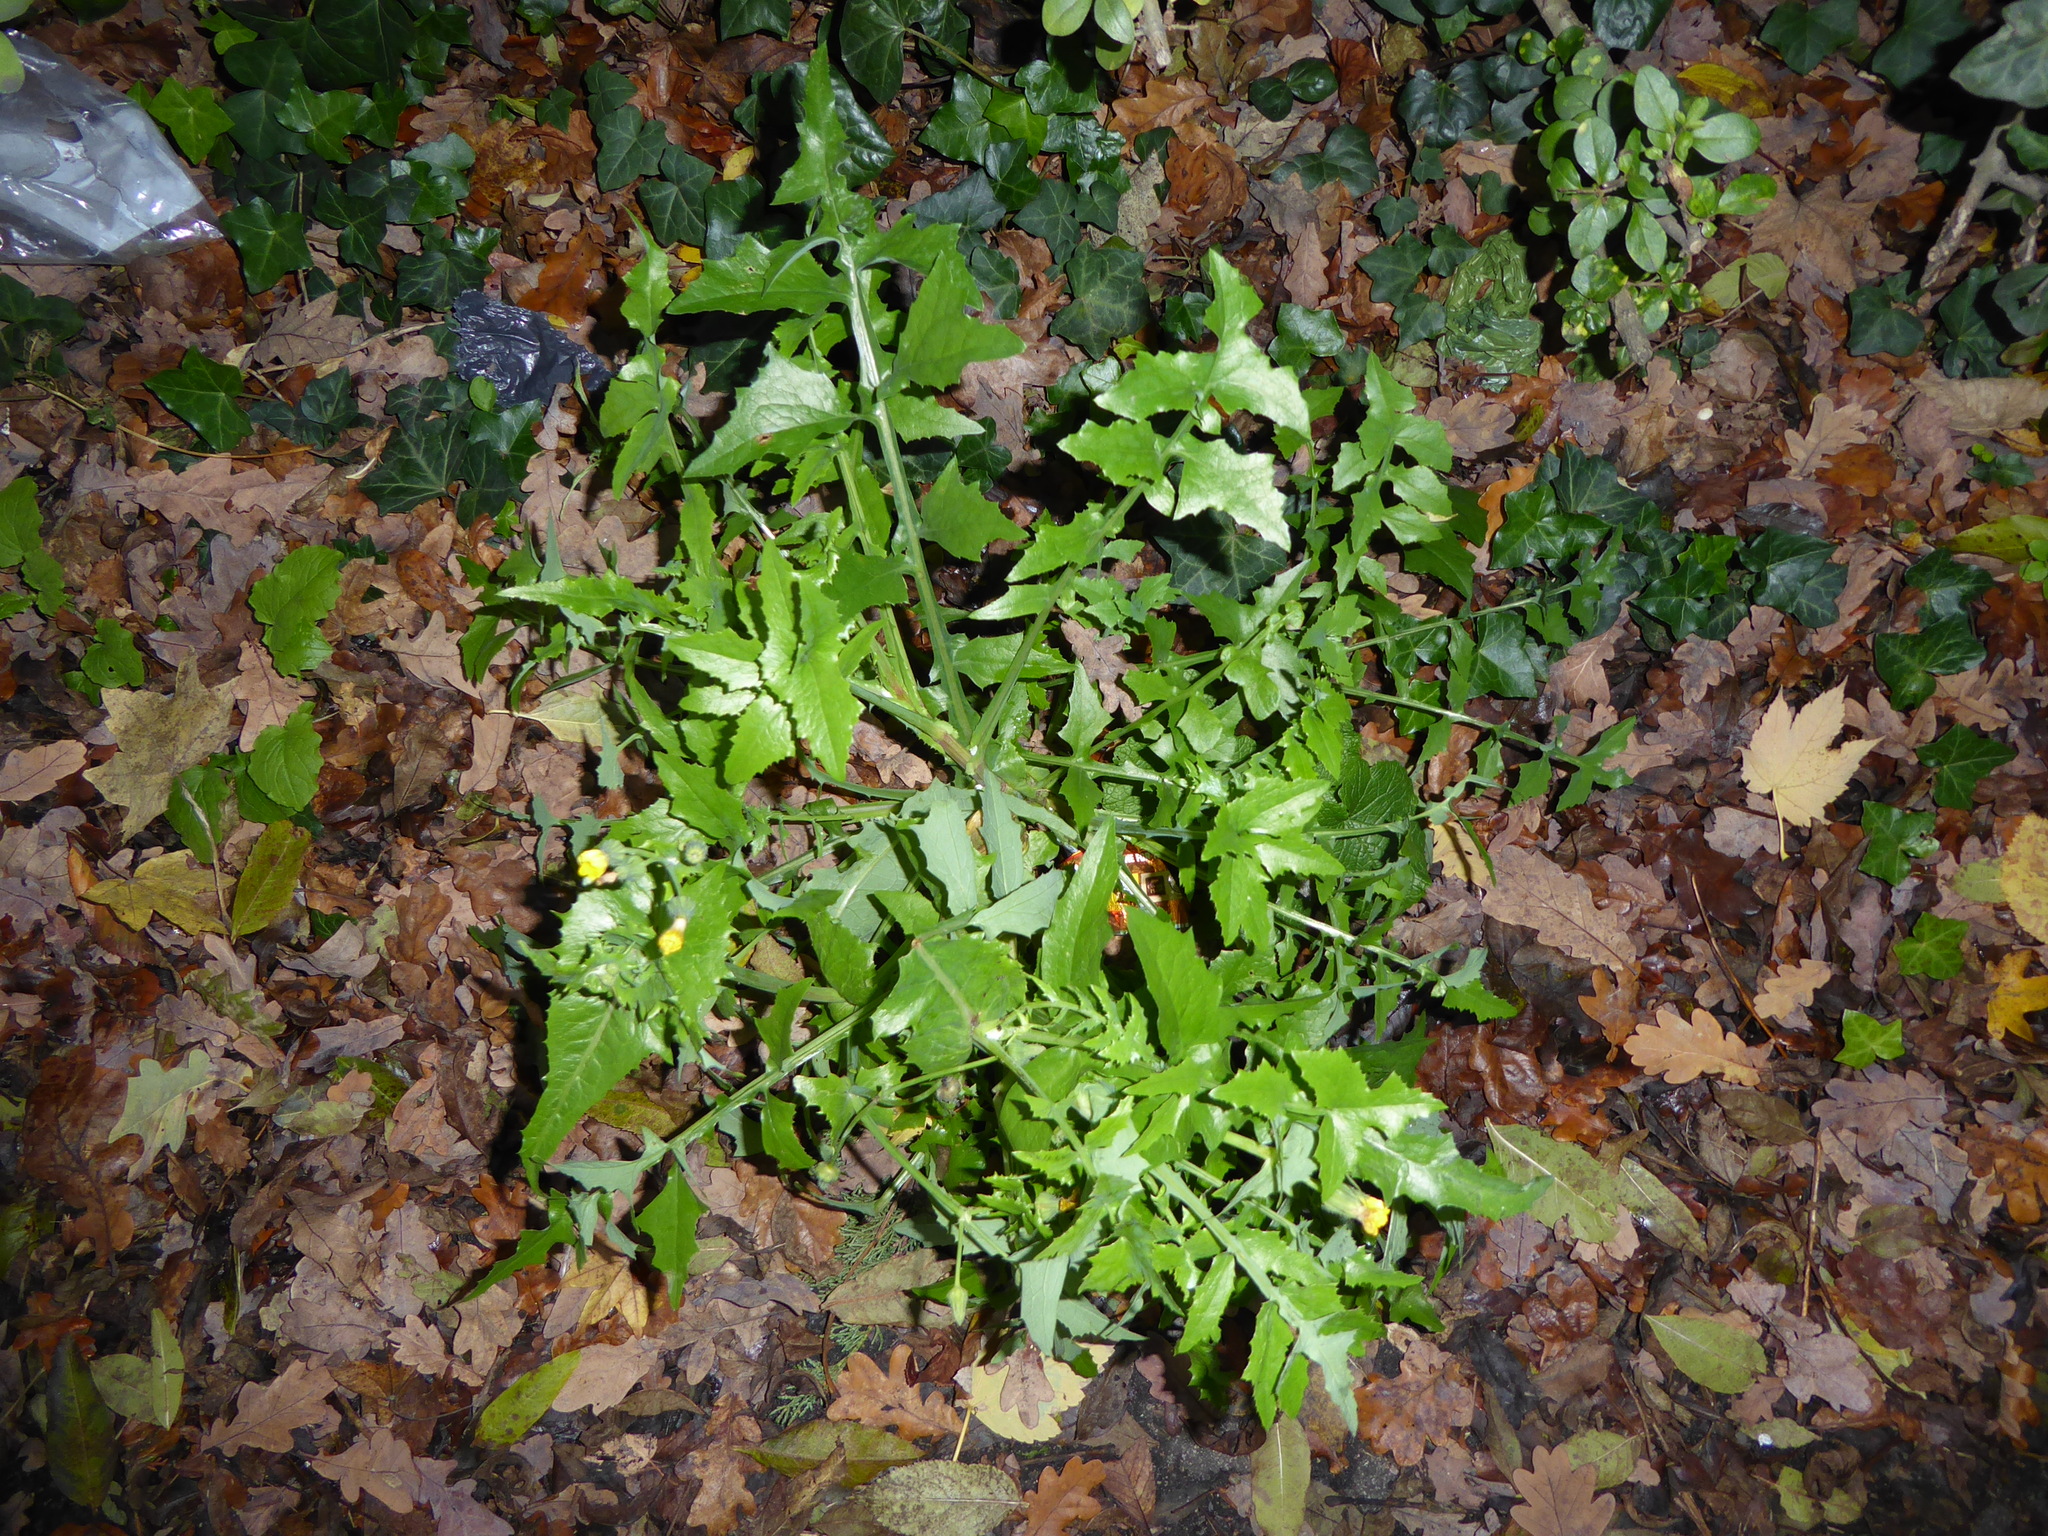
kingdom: Plantae
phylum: Tracheophyta
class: Magnoliopsida
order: Asterales
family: Asteraceae
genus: Sonchus
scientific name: Sonchus oleraceus
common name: Common sowthistle
